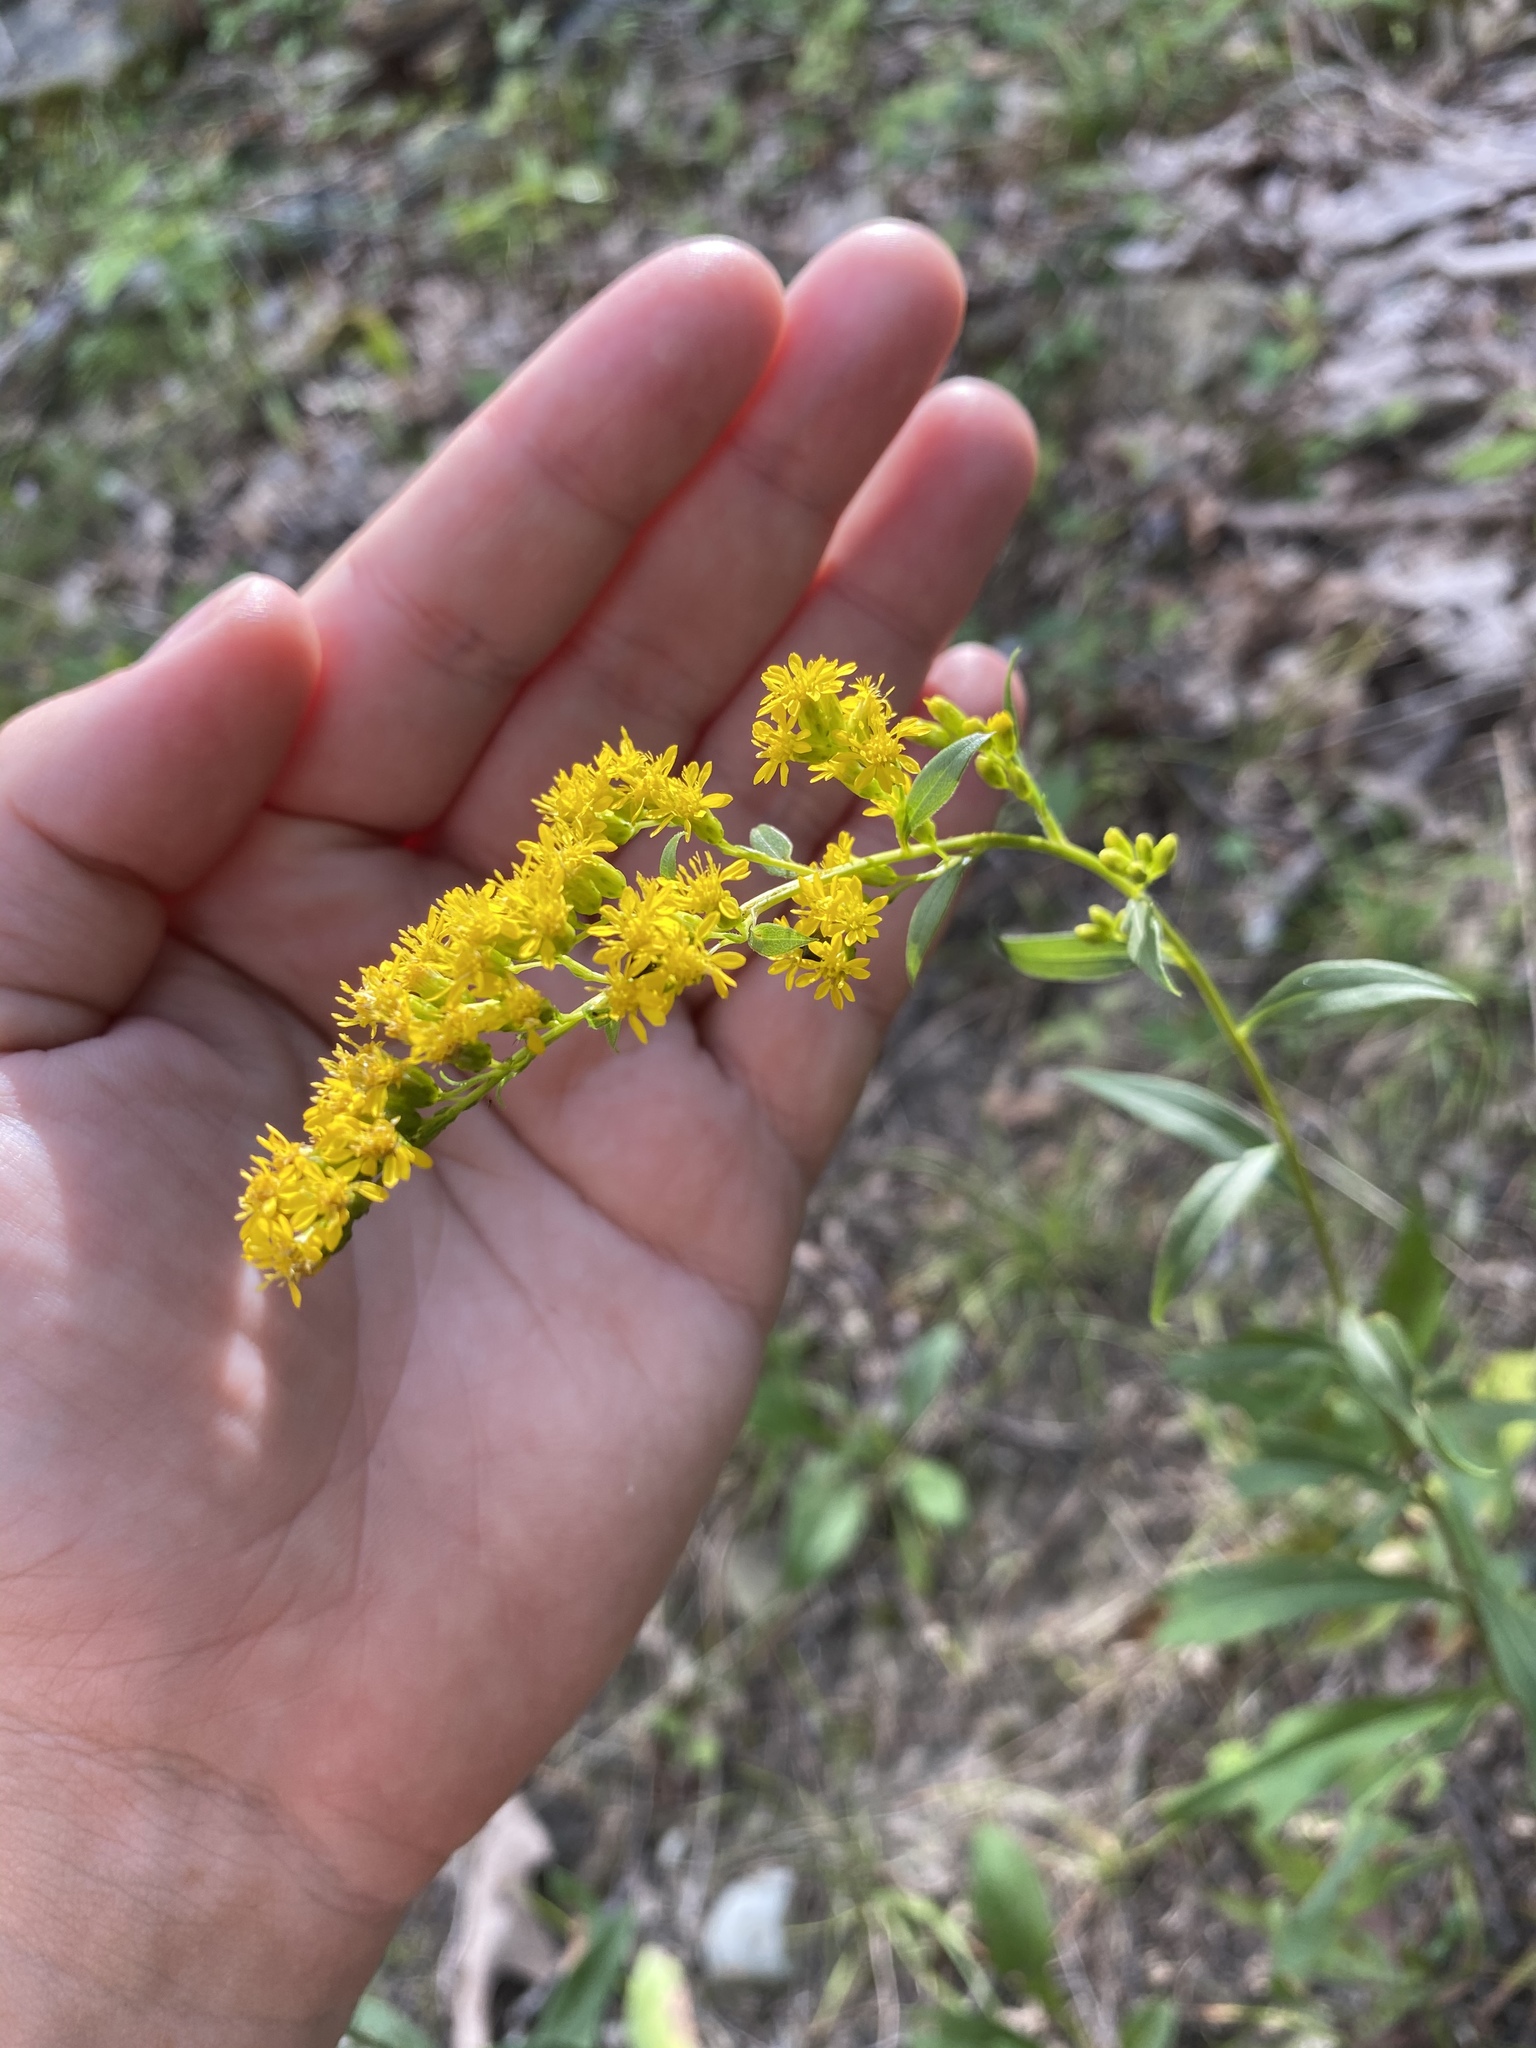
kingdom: Plantae
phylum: Tracheophyta
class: Magnoliopsida
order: Asterales
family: Asteraceae
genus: Solidago
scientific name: Solidago juncea
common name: Early goldenrod
